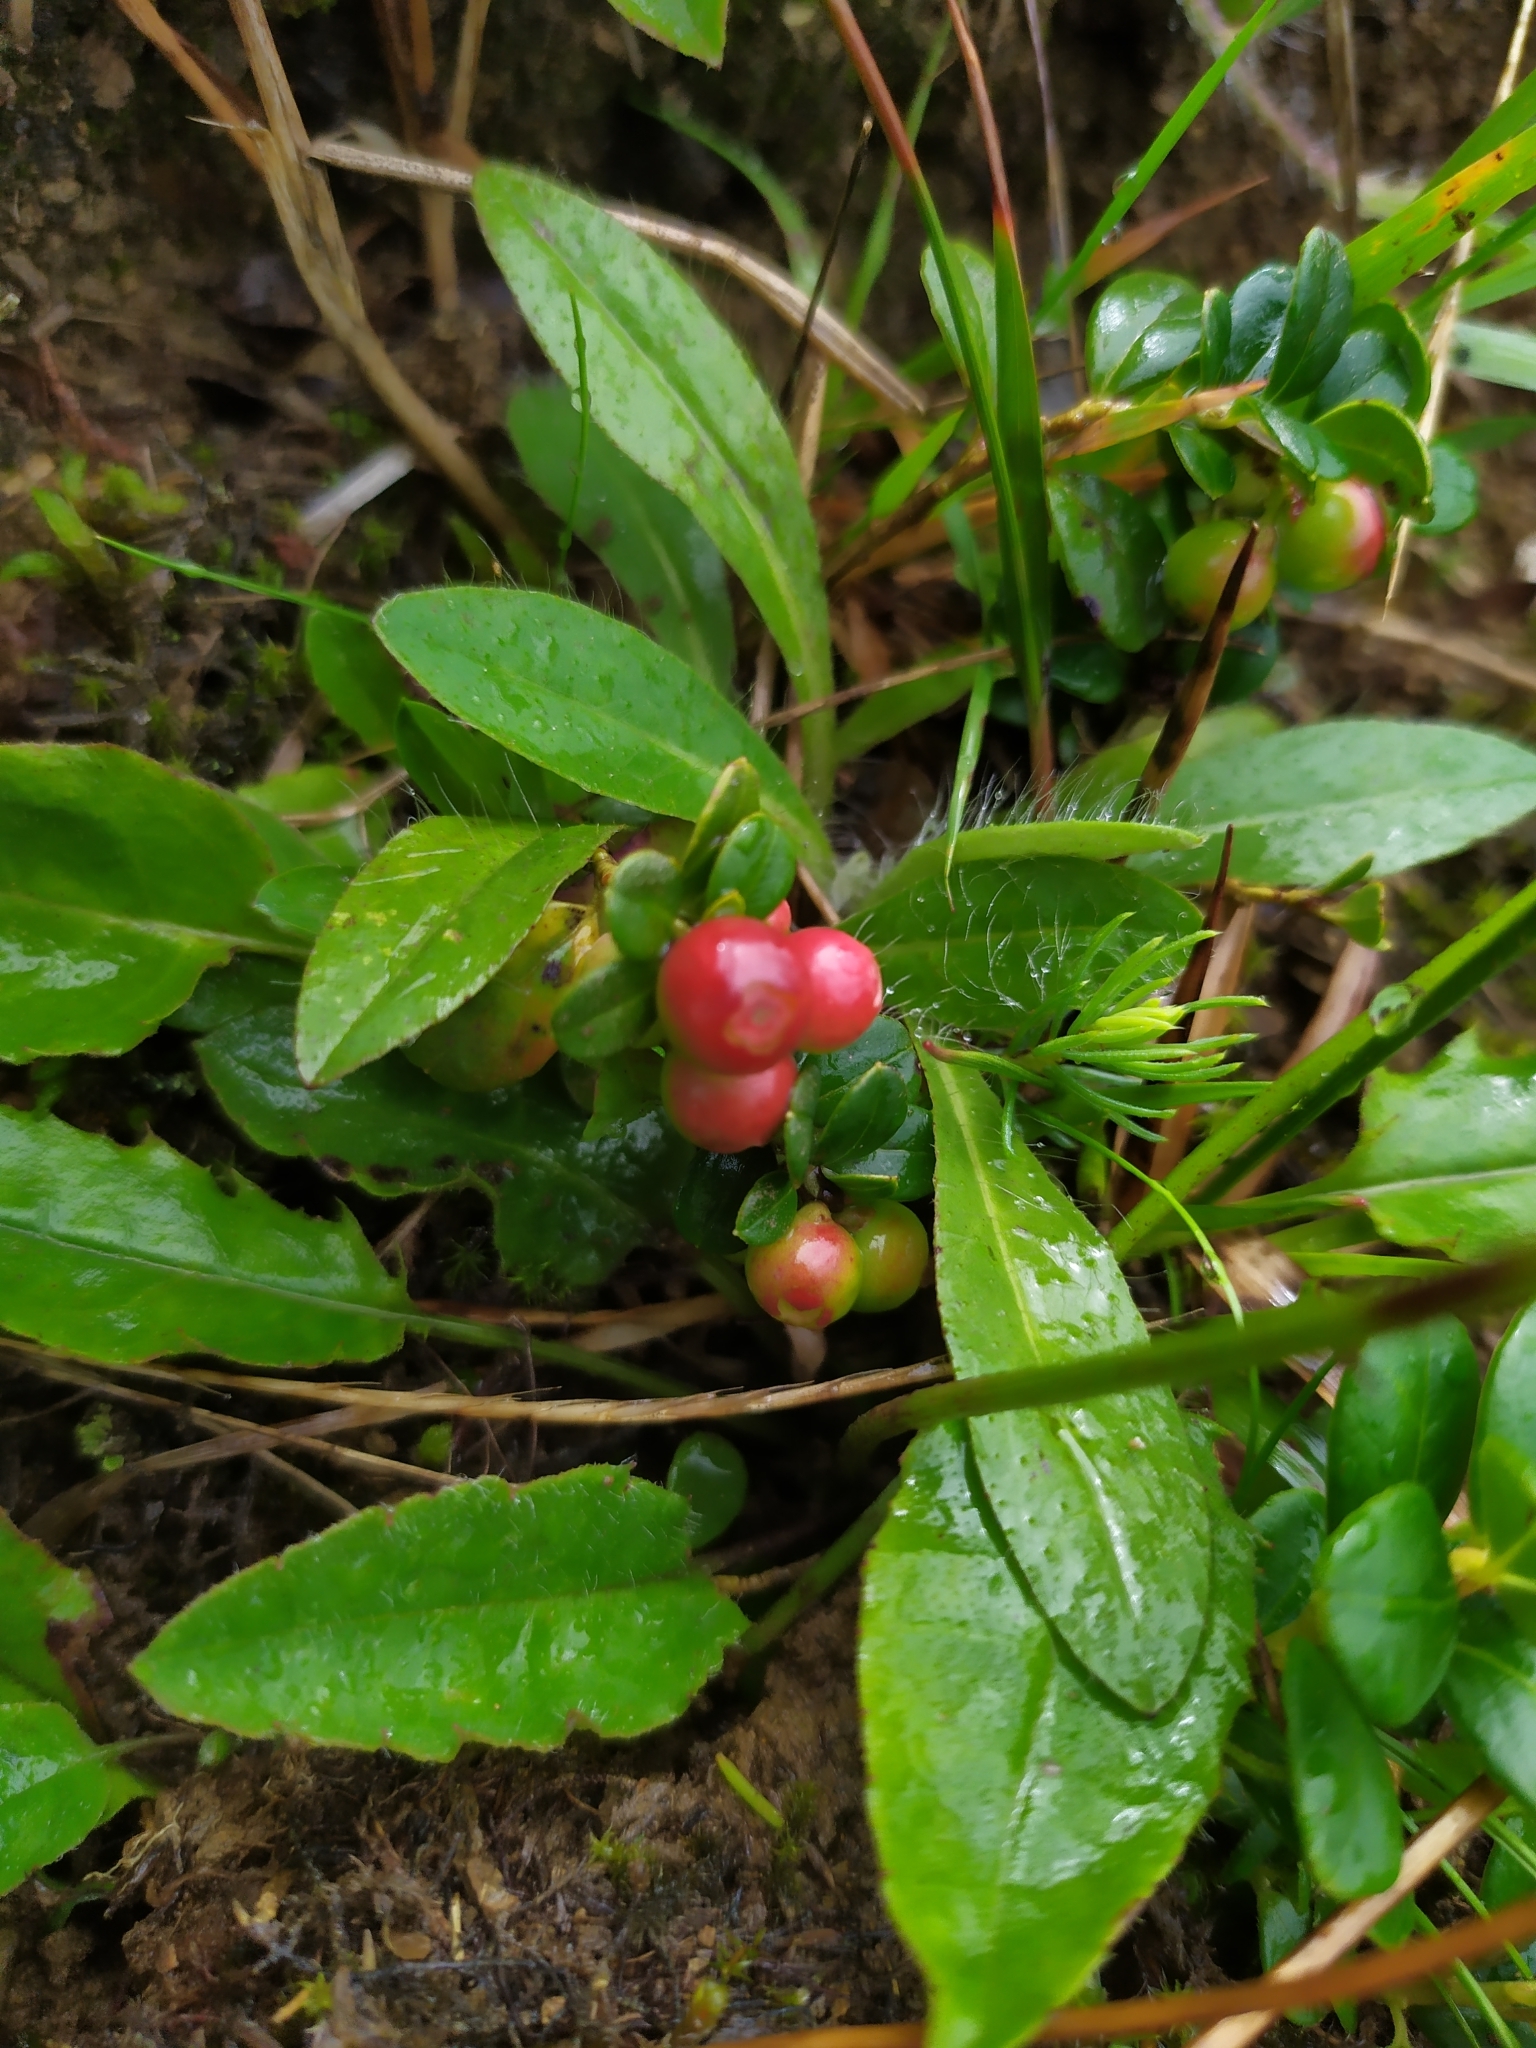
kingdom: Plantae
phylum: Tracheophyta
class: Magnoliopsida
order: Ericales
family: Ericaceae
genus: Vaccinium
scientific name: Vaccinium vitis-idaea
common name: Cowberry
